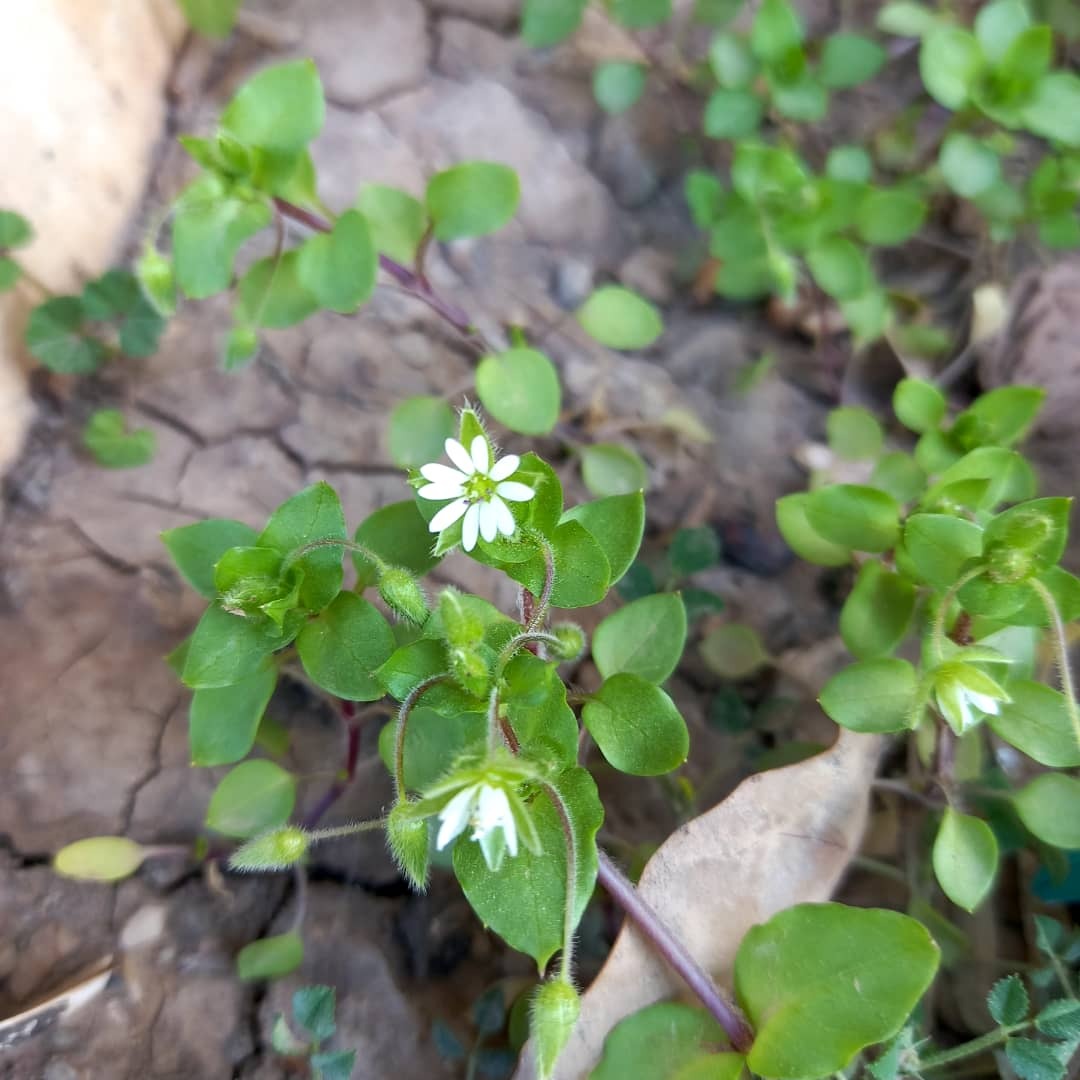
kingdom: Plantae
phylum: Tracheophyta
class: Magnoliopsida
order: Caryophyllales
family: Caryophyllaceae
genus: Stellaria
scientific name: Stellaria media
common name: Common chickweed
